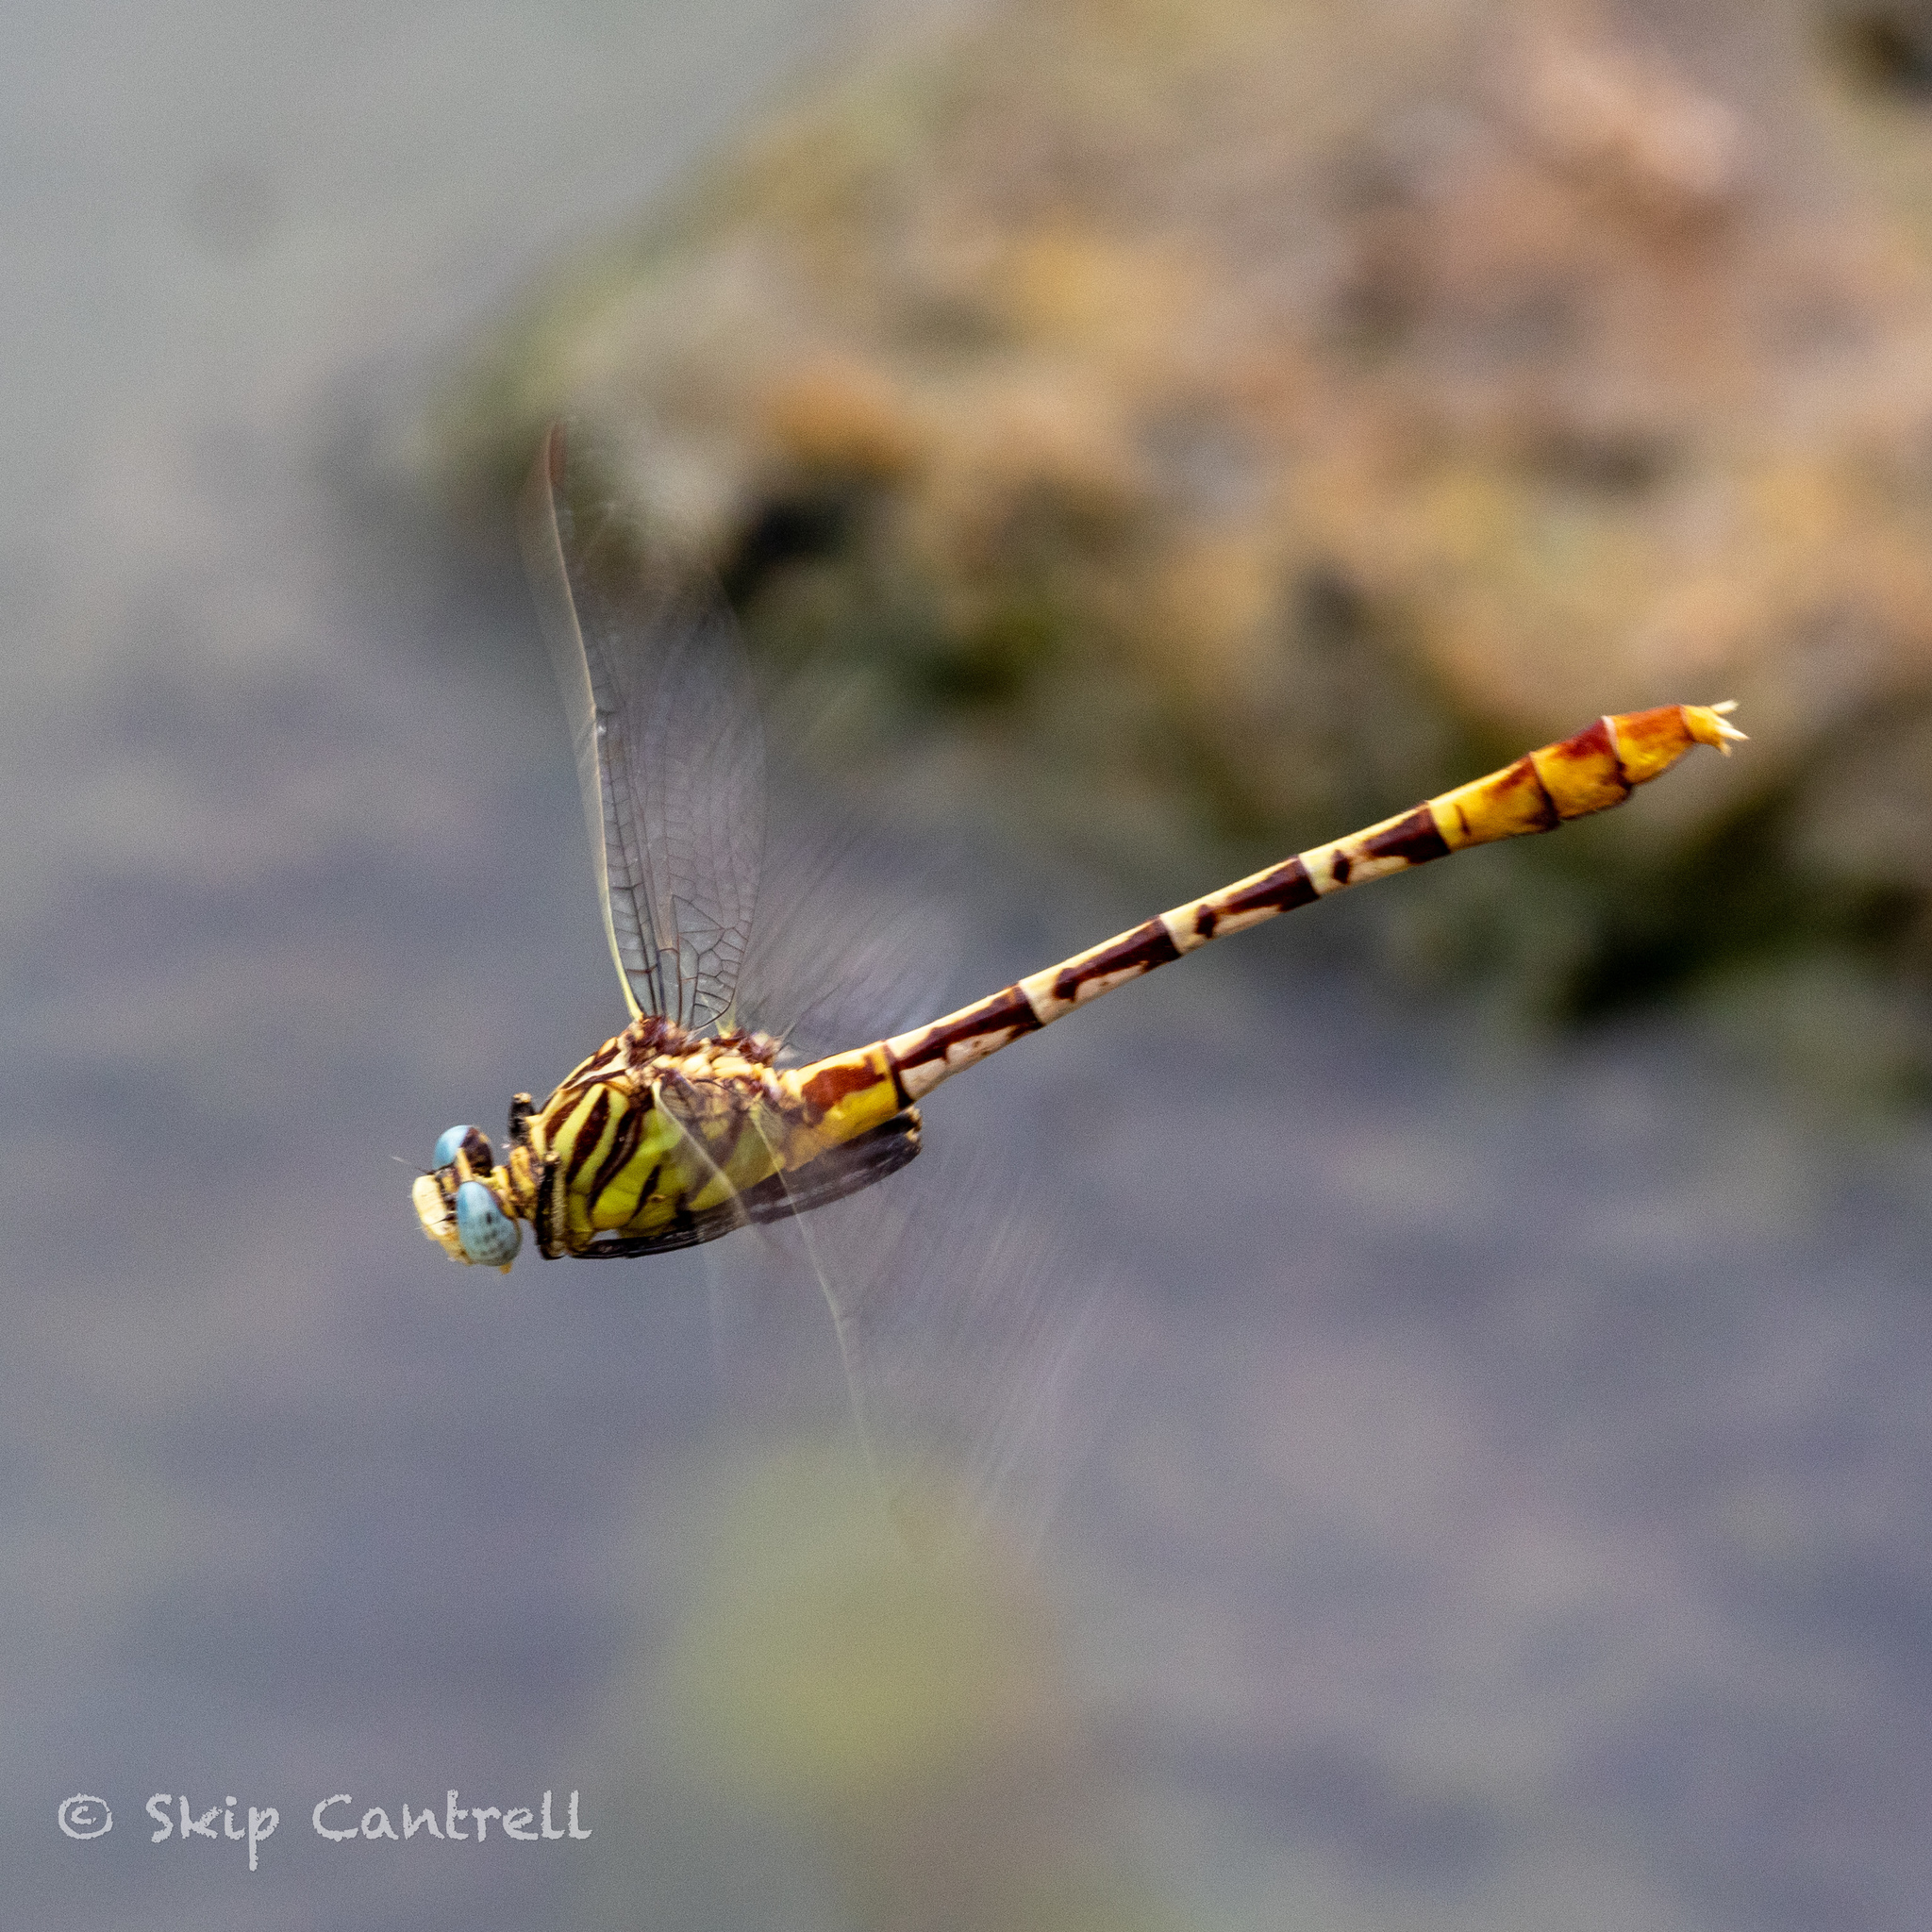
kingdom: Animalia
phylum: Arthropoda
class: Insecta
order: Odonata
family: Gomphidae
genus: Dromogomphus
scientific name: Dromogomphus spoliatus
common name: Flag-tailed spinyleg
